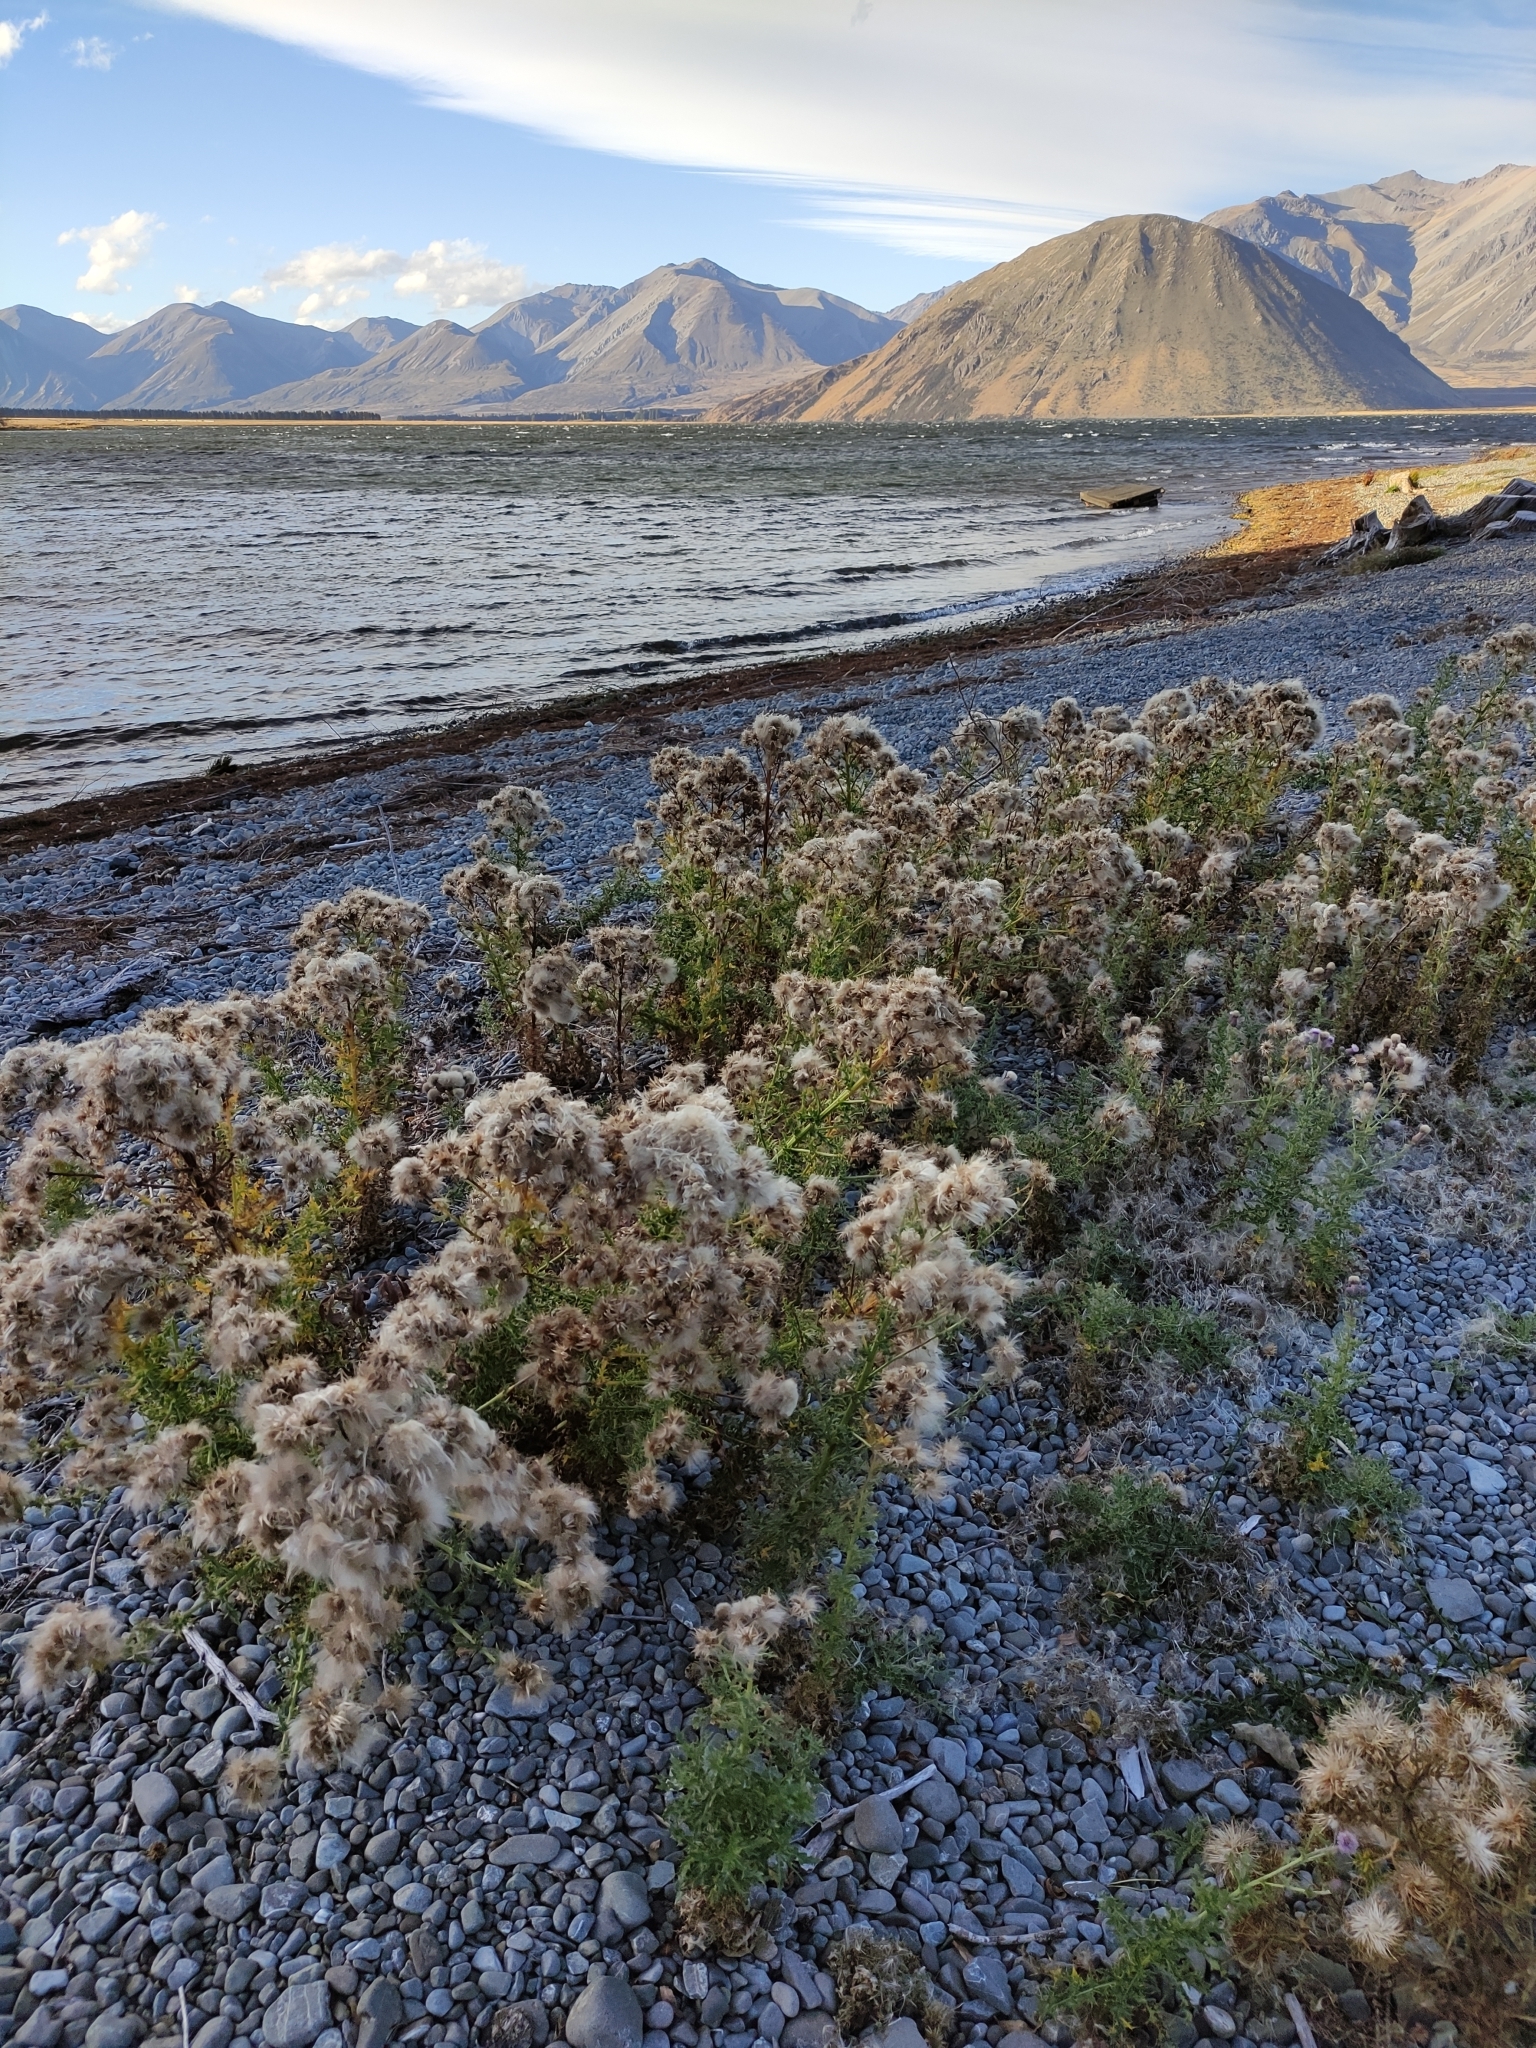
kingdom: Plantae
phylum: Tracheophyta
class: Magnoliopsida
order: Asterales
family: Asteraceae
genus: Cirsium
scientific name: Cirsium arvense
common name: Creeping thistle
